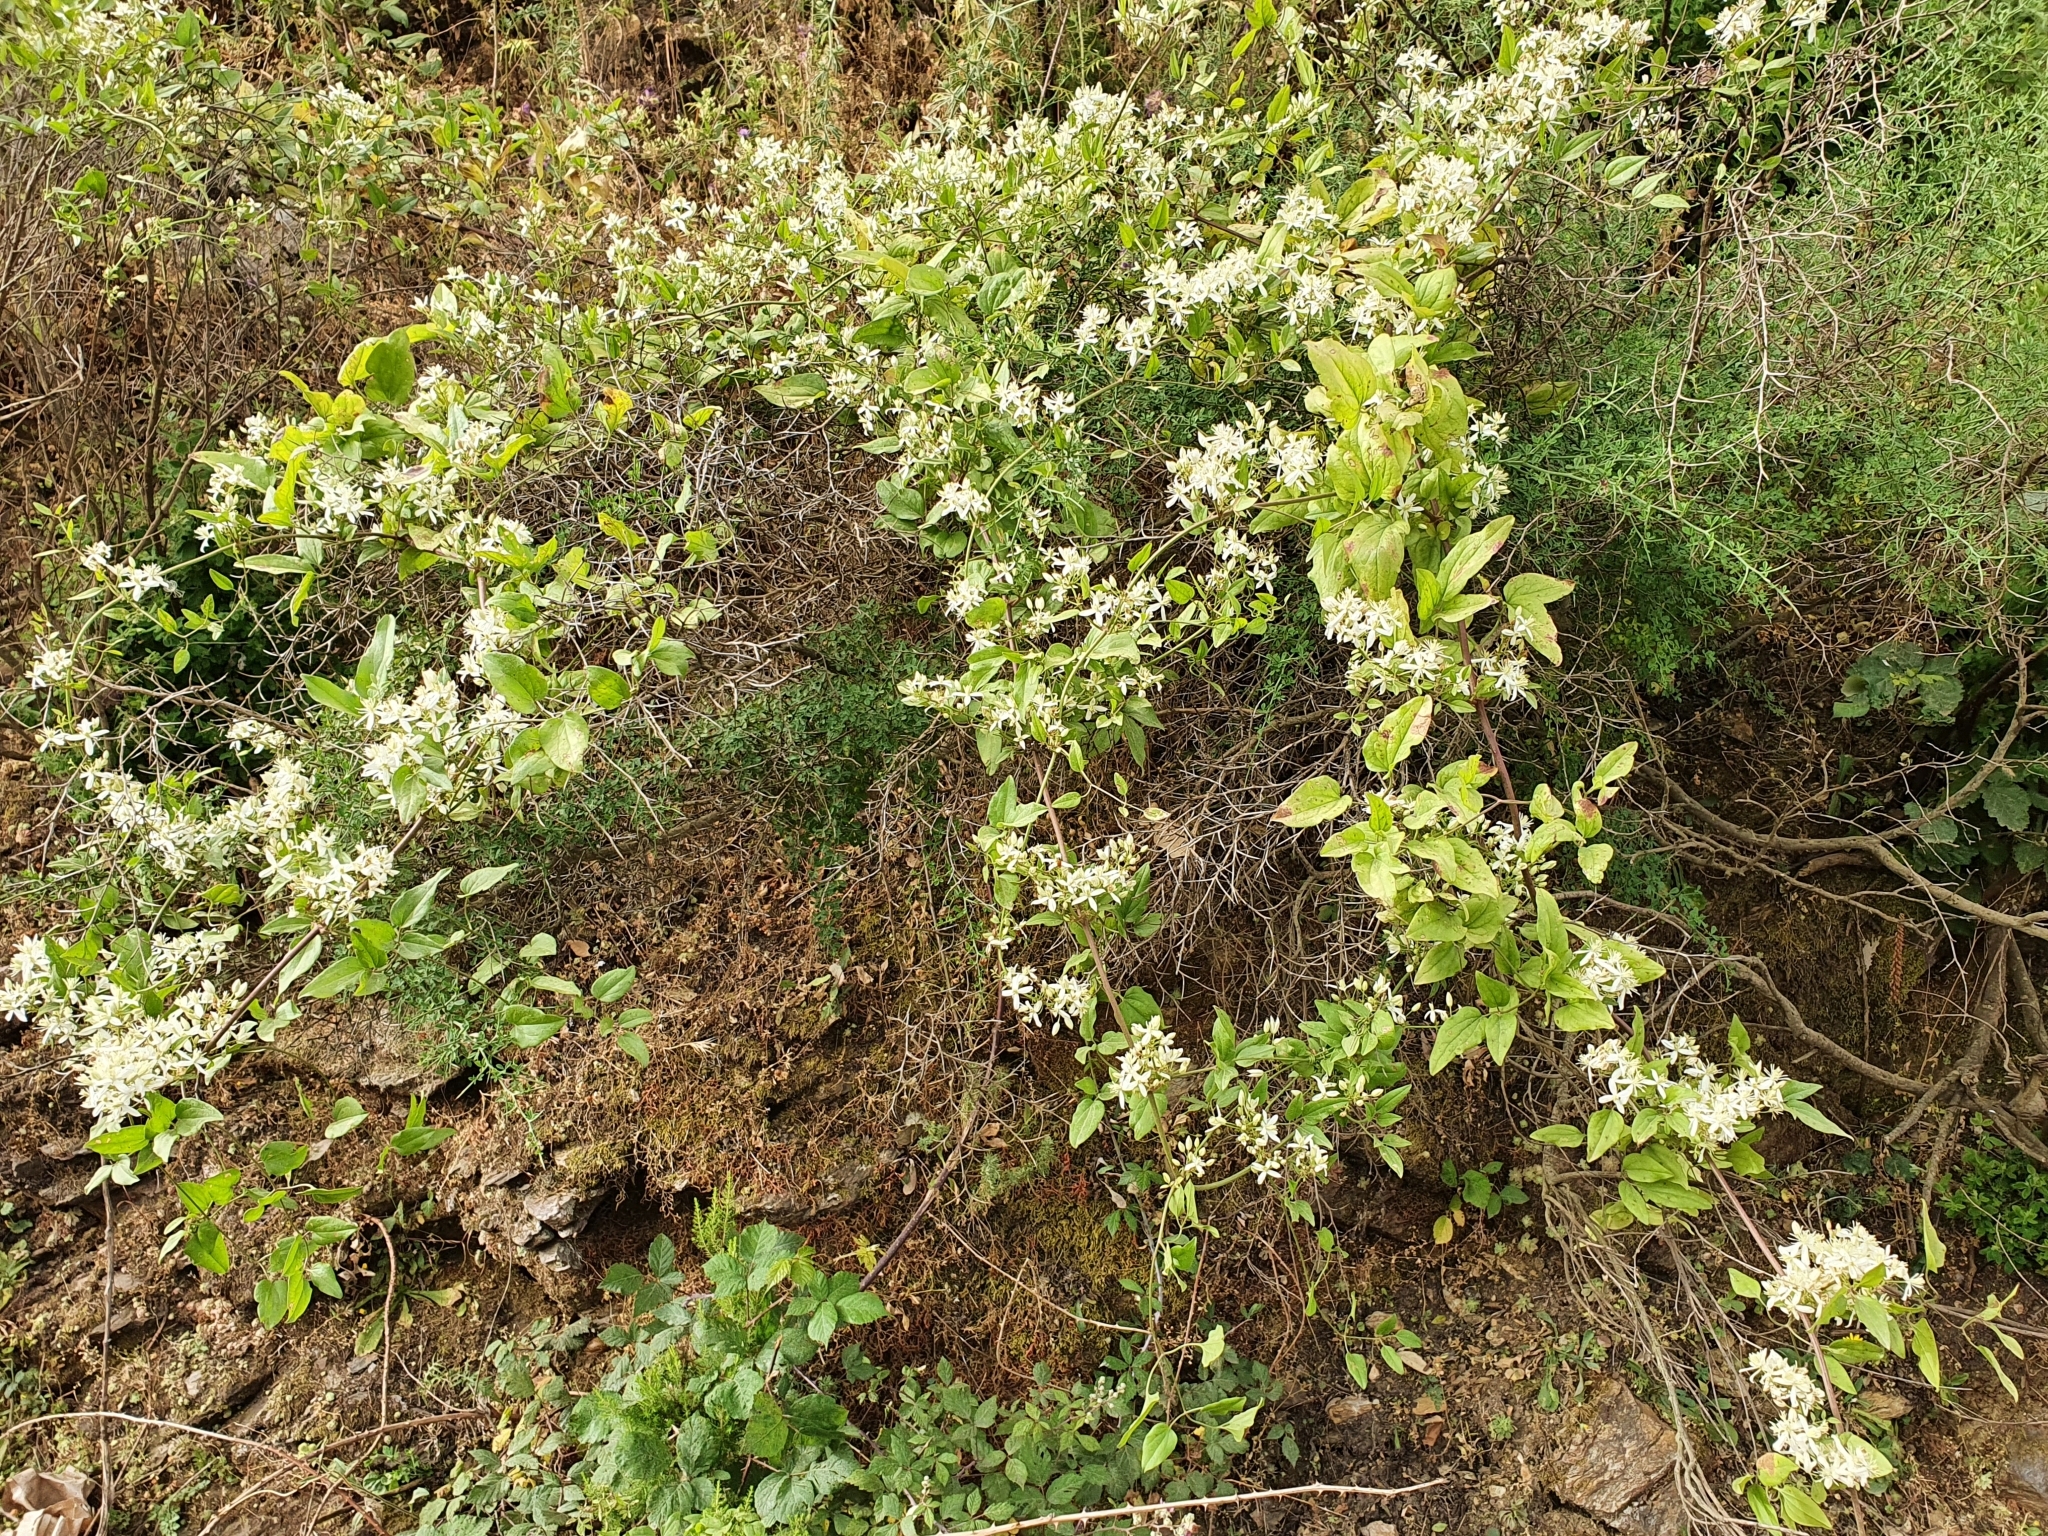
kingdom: Plantae
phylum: Tracheophyta
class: Magnoliopsida
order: Ranunculales
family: Ranunculaceae
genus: Clematis
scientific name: Clematis flammula
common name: Virgin's-bower
